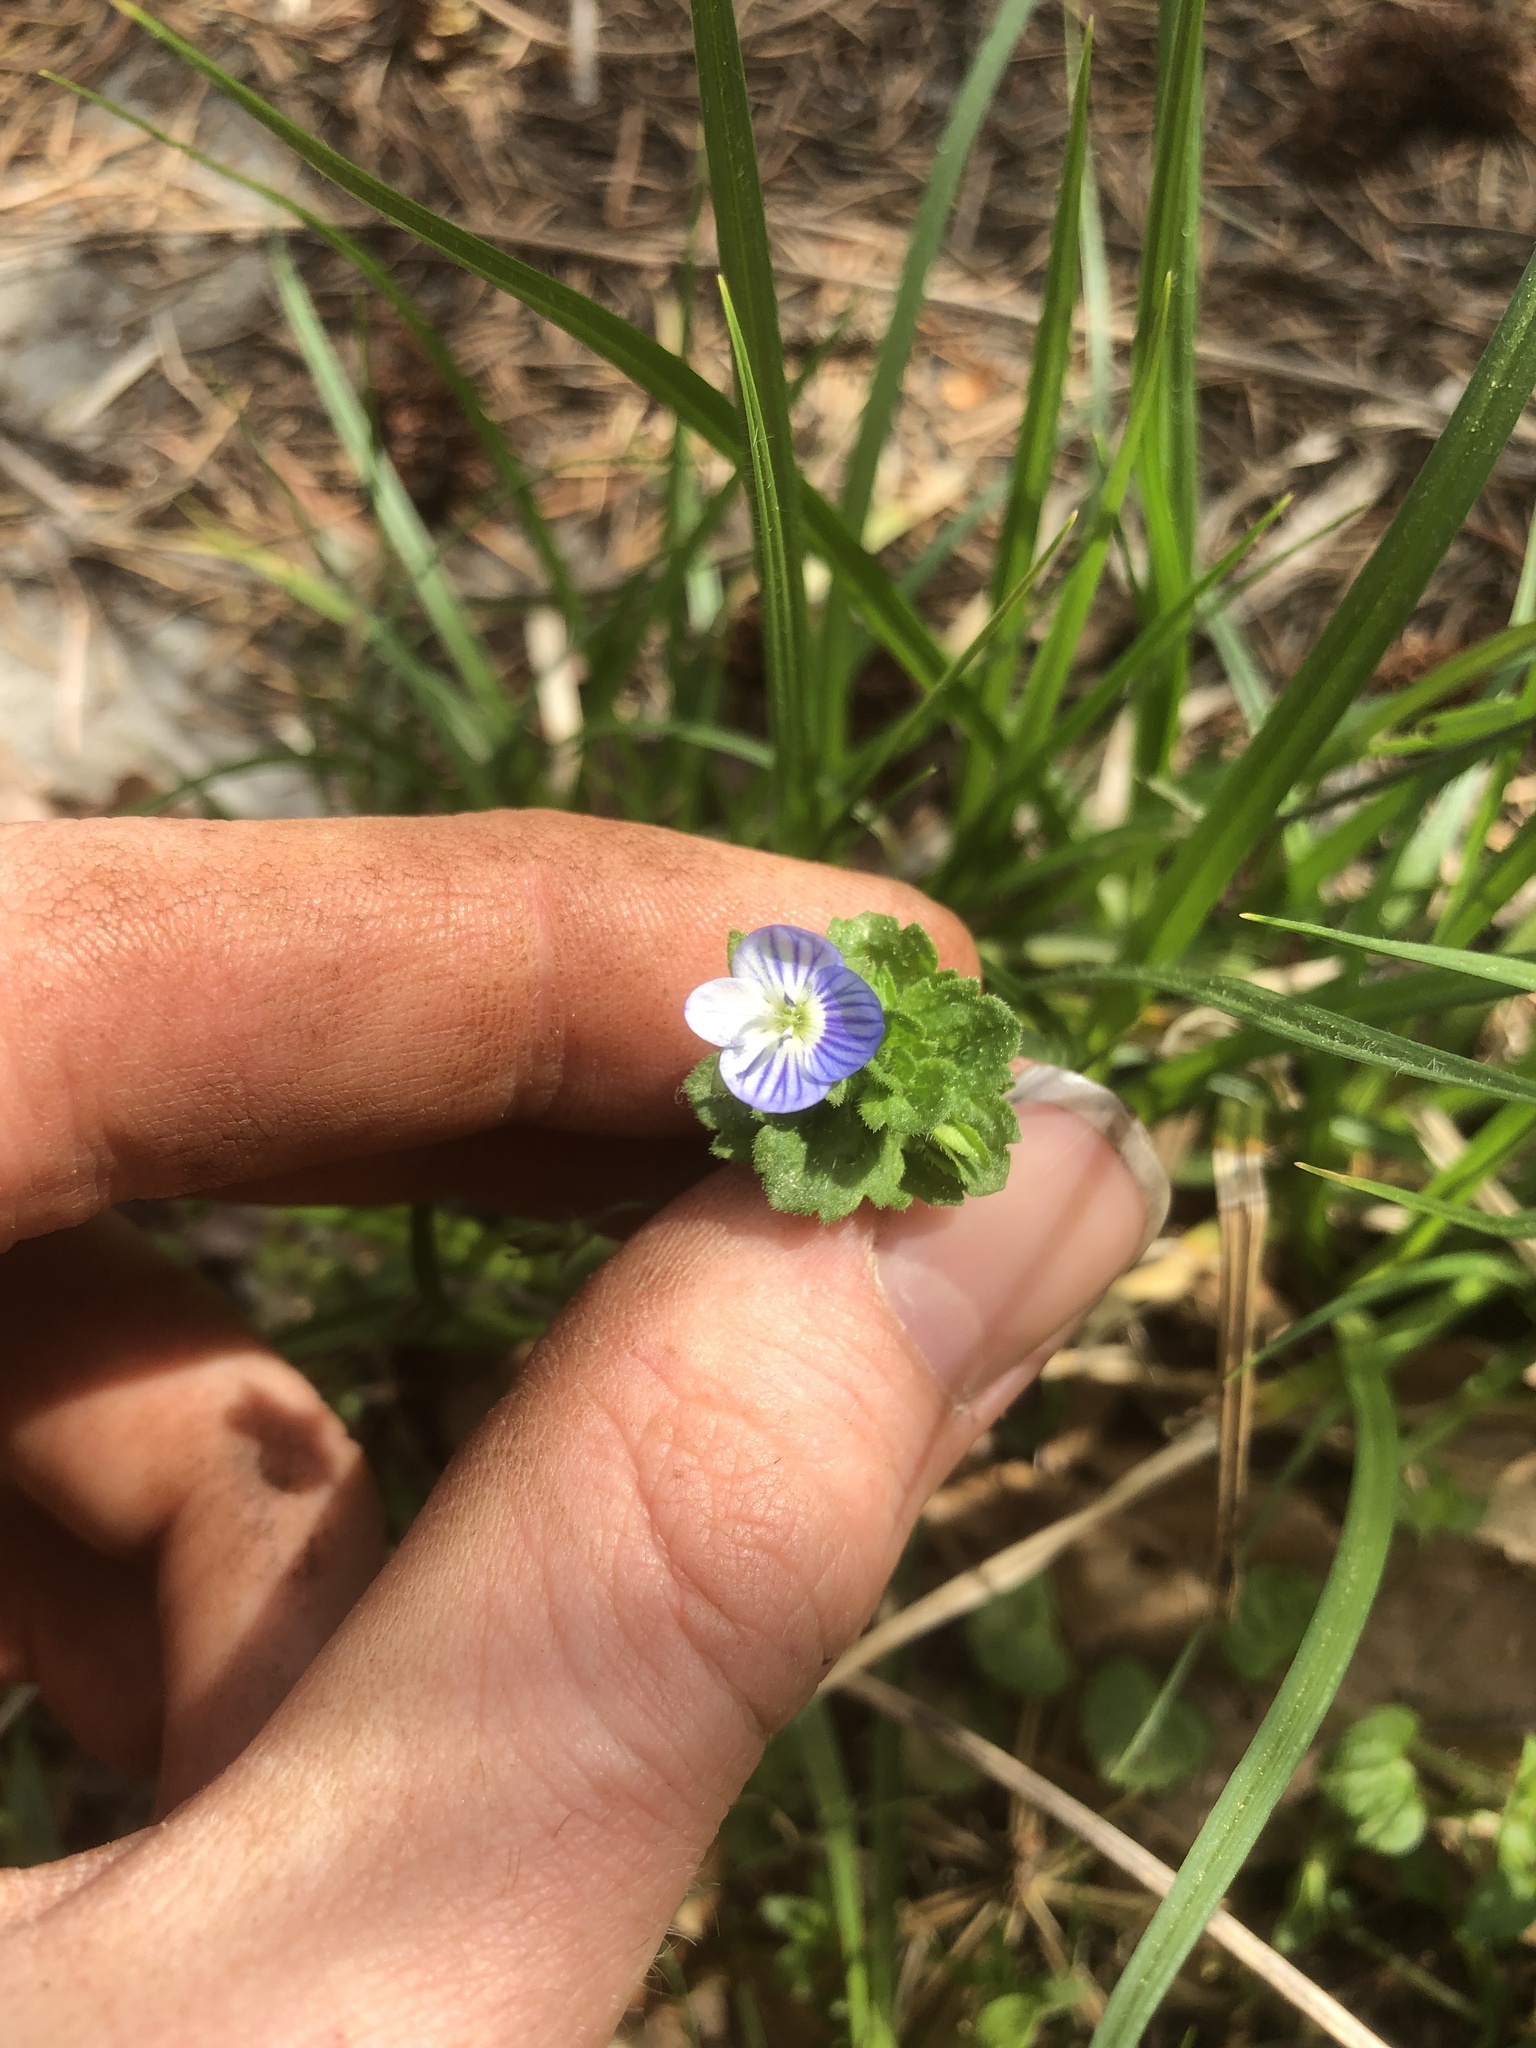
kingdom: Plantae
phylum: Tracheophyta
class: Magnoliopsida
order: Lamiales
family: Plantaginaceae
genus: Veronica
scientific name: Veronica persica
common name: Common field-speedwell
